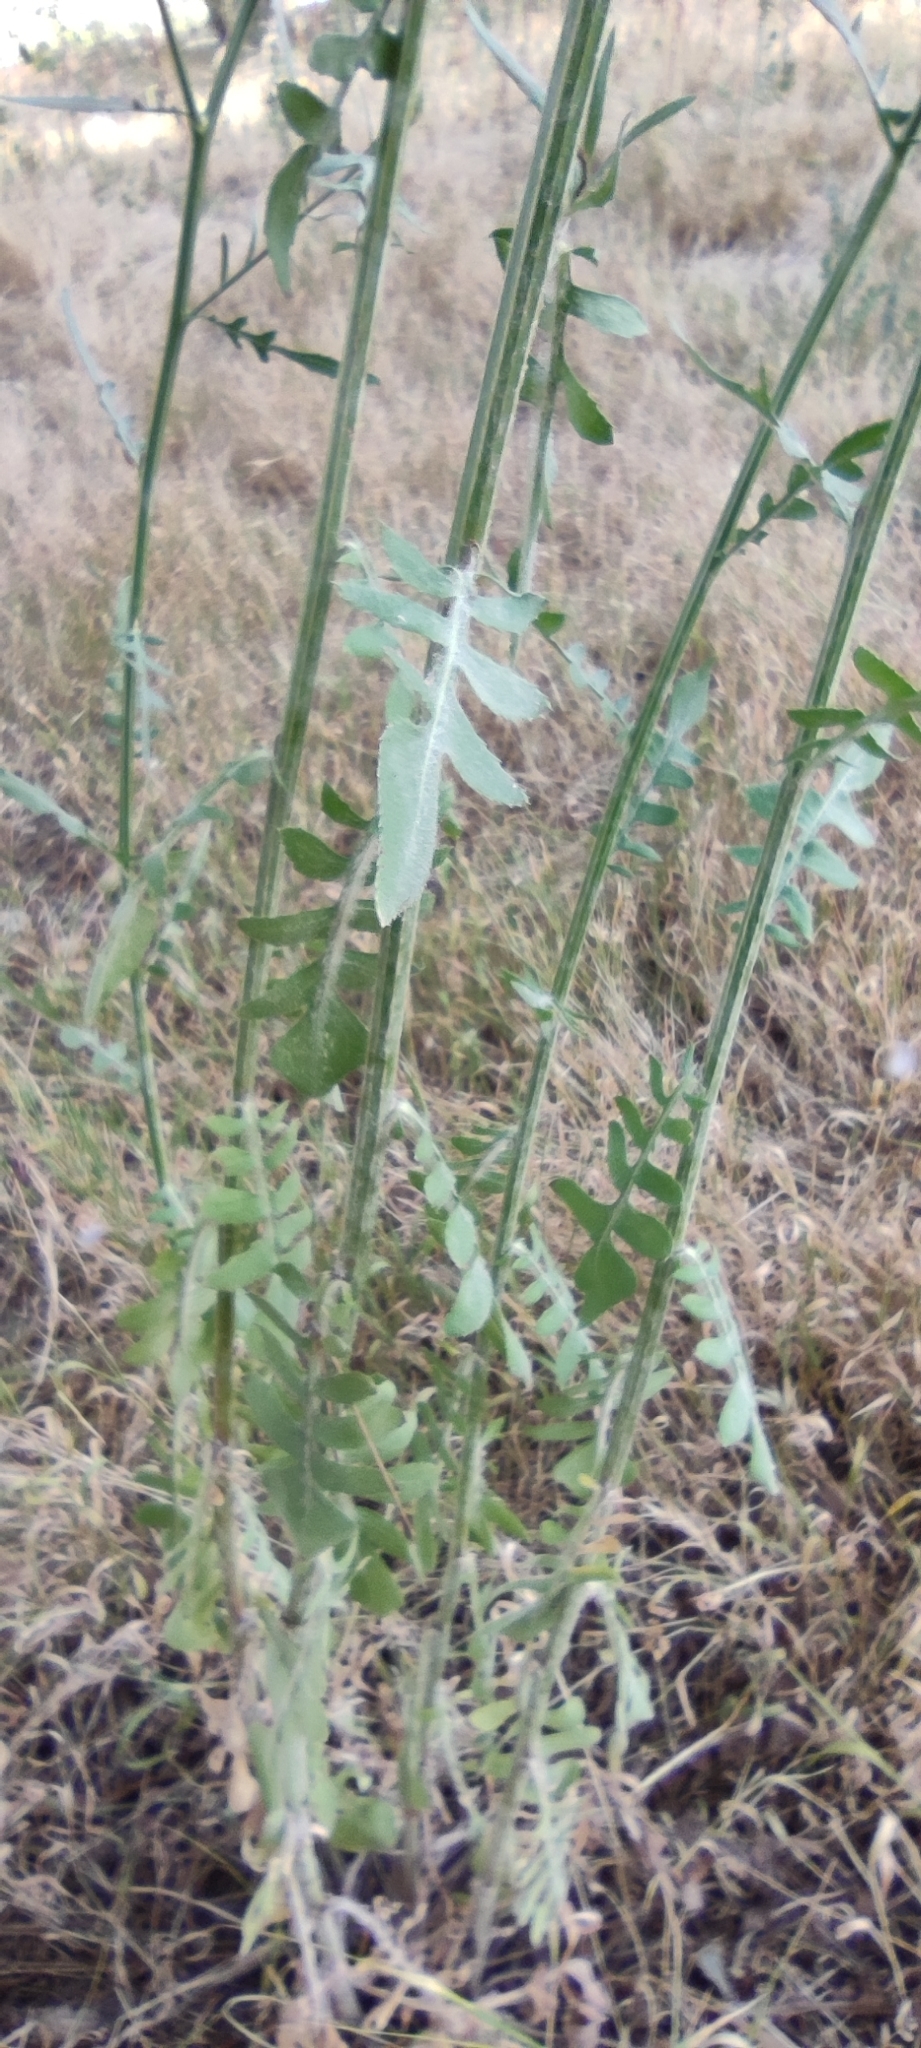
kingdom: Plantae
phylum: Tracheophyta
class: Magnoliopsida
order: Asterales
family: Asteraceae
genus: Mantisalca
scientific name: Mantisalca salmantica
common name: Dagger flower
